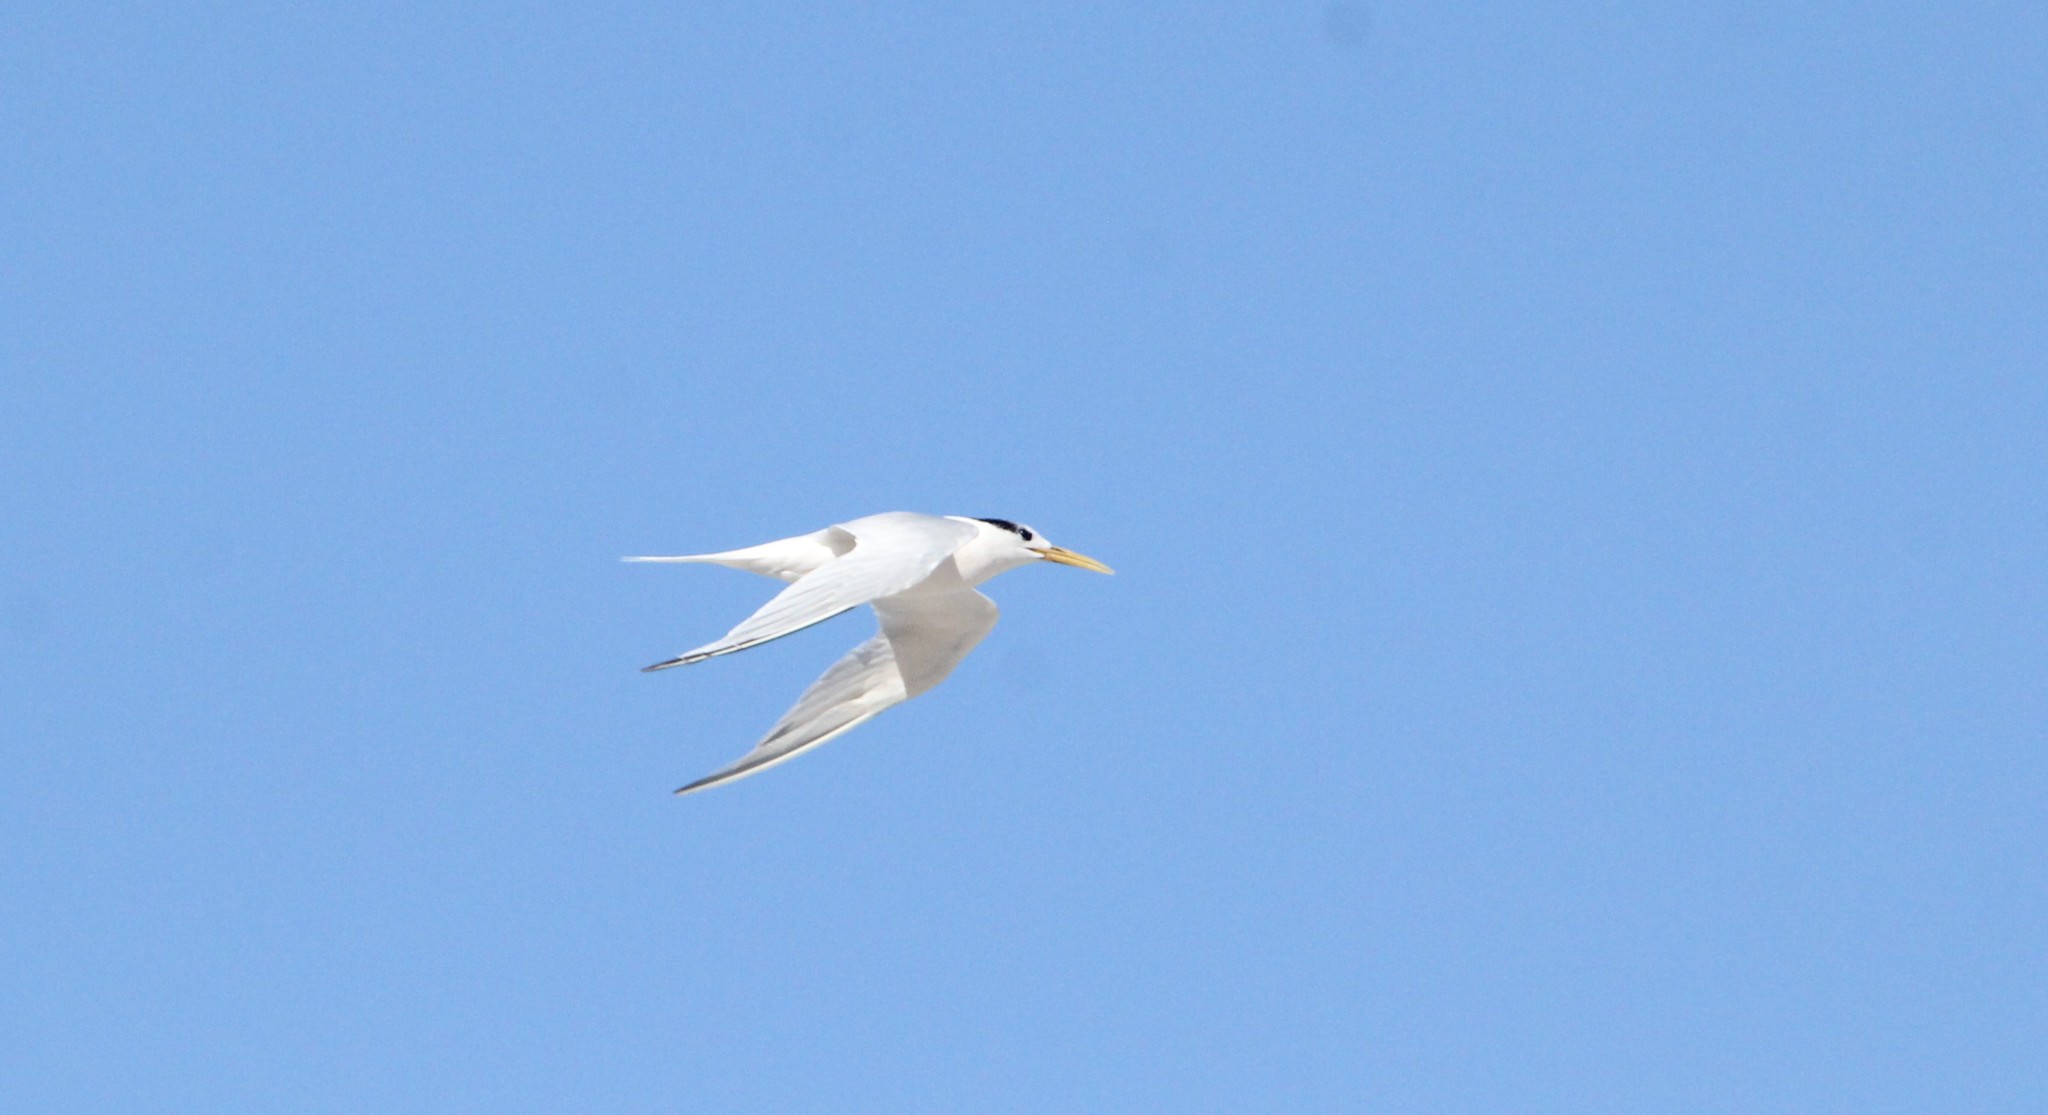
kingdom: Animalia
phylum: Chordata
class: Aves
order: Charadriiformes
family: Laridae
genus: Thalasseus
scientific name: Thalasseus acuflavidus
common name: Cabot's tern
